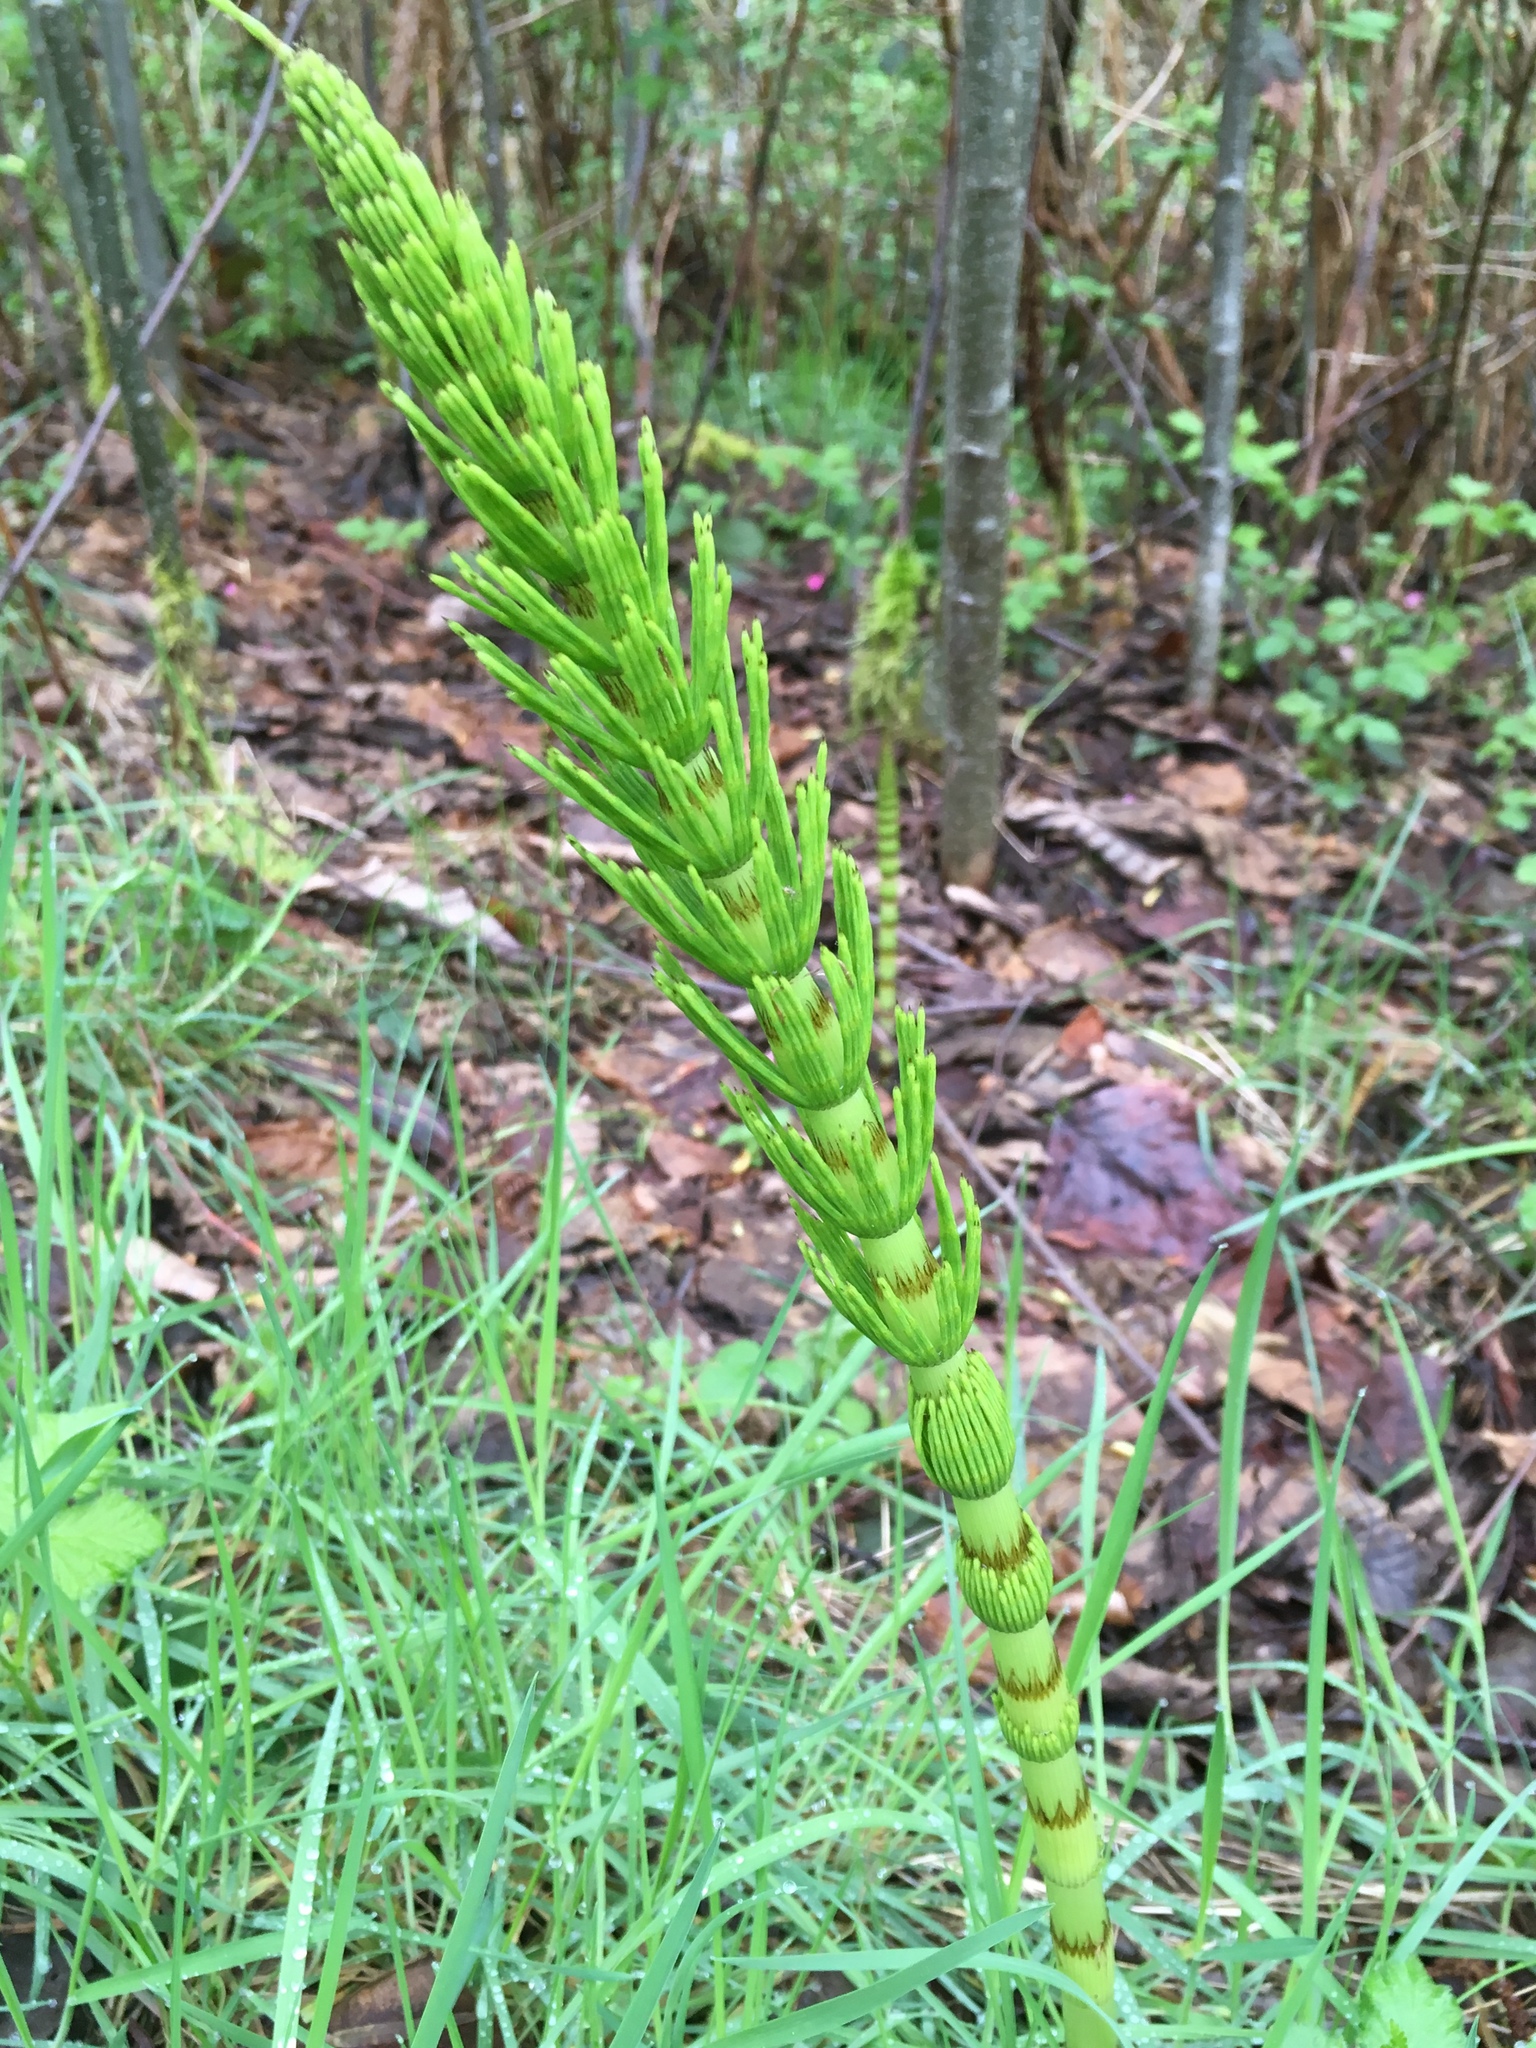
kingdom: Plantae
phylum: Tracheophyta
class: Polypodiopsida
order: Equisetales
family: Equisetaceae
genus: Equisetum
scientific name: Equisetum braunii
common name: Braun's horsetail
